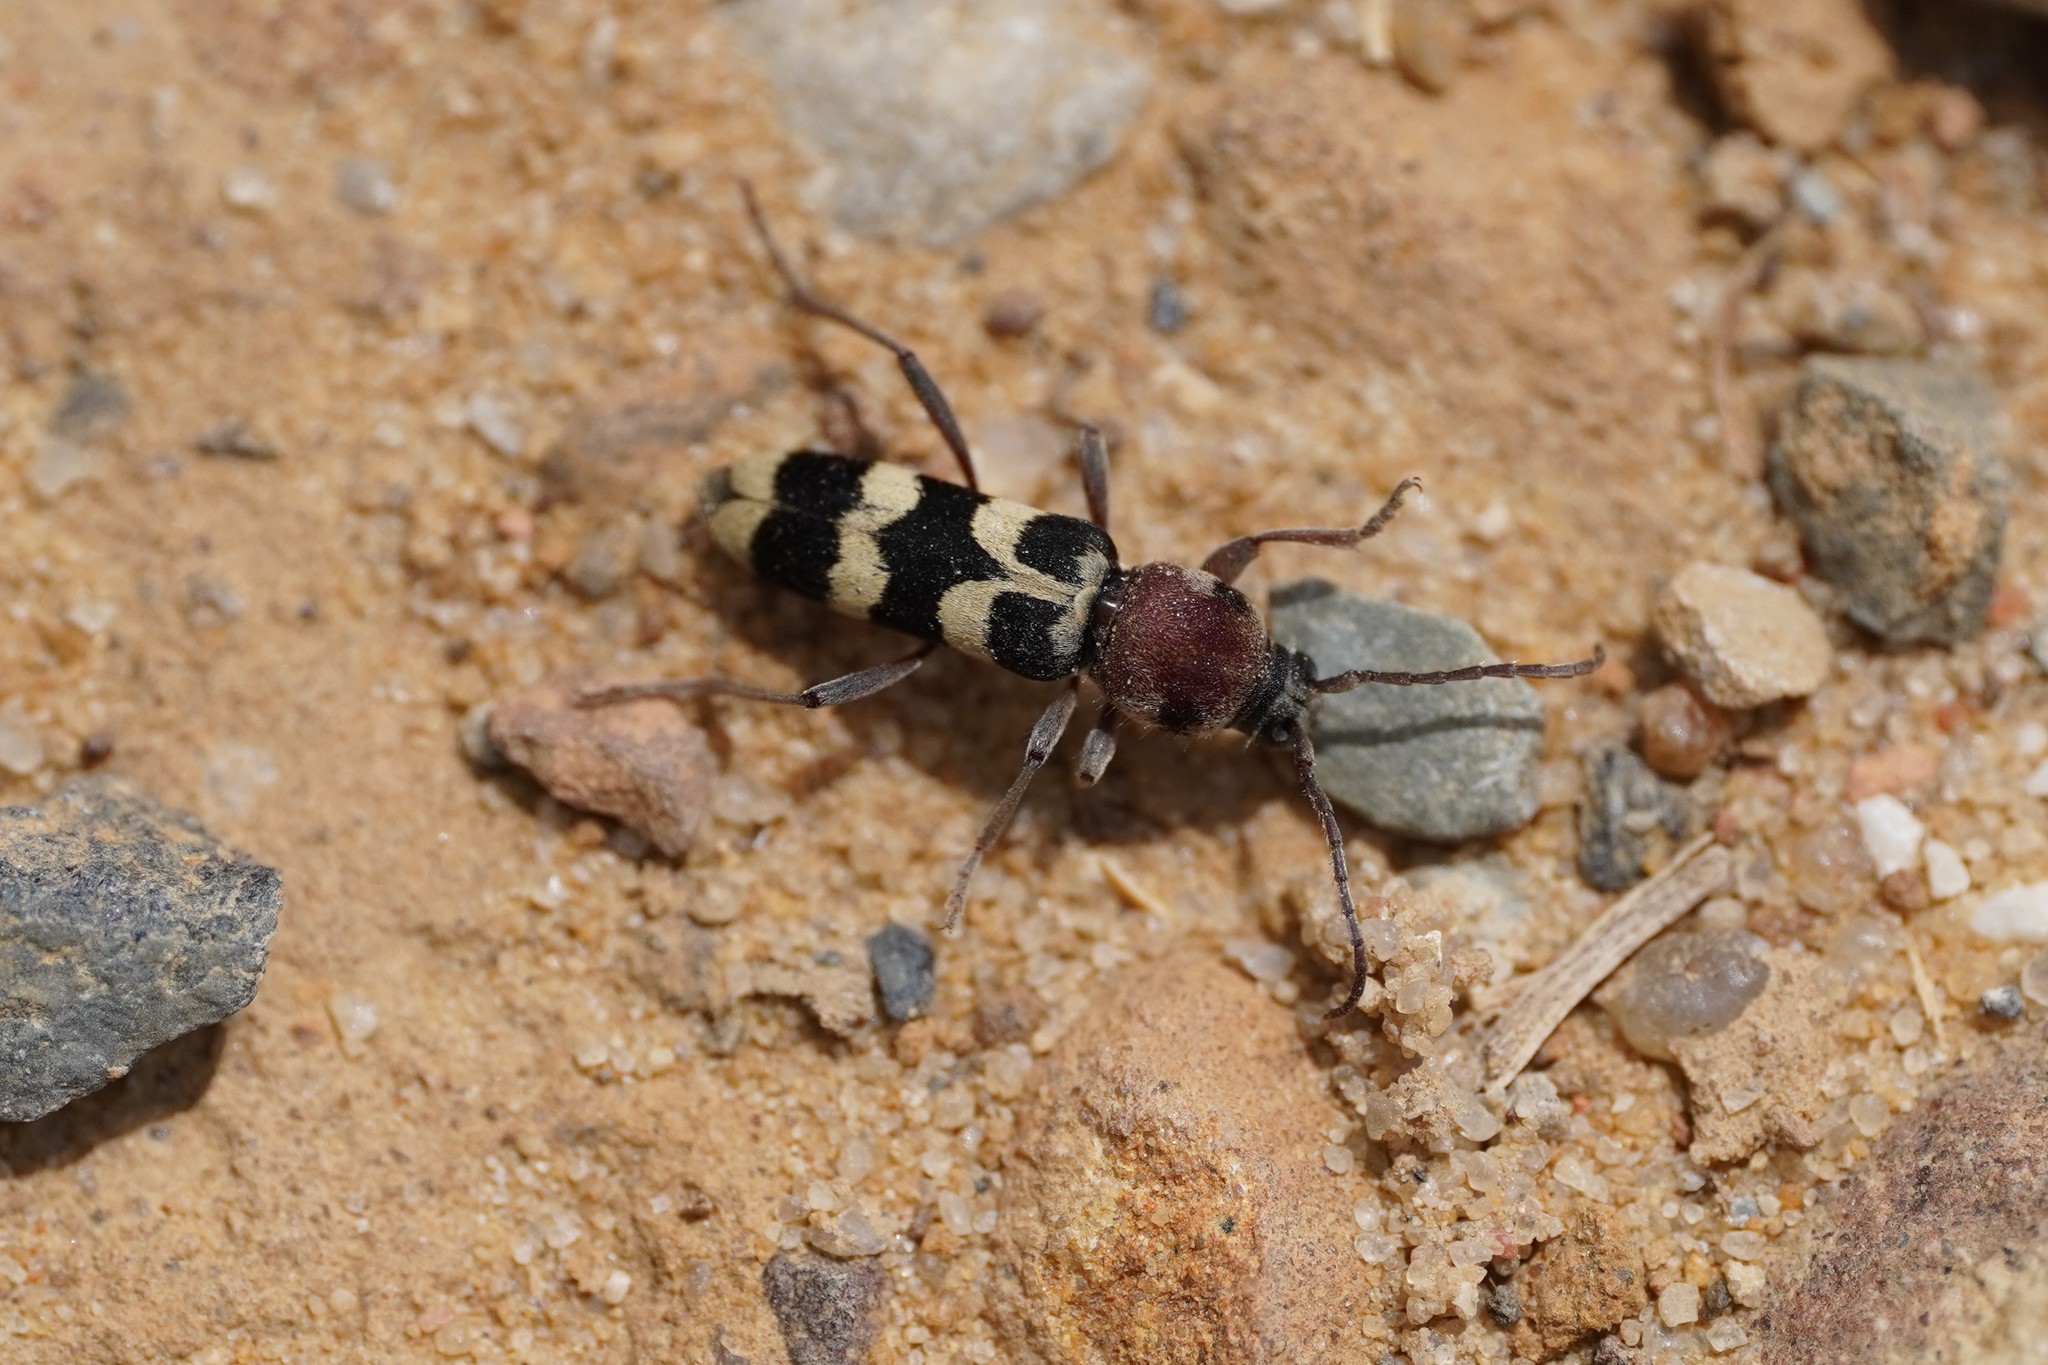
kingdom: Animalia
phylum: Arthropoda
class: Insecta
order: Coleoptera
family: Cerambycidae
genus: Chlorophorus
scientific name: Chlorophorus trifasciatus
